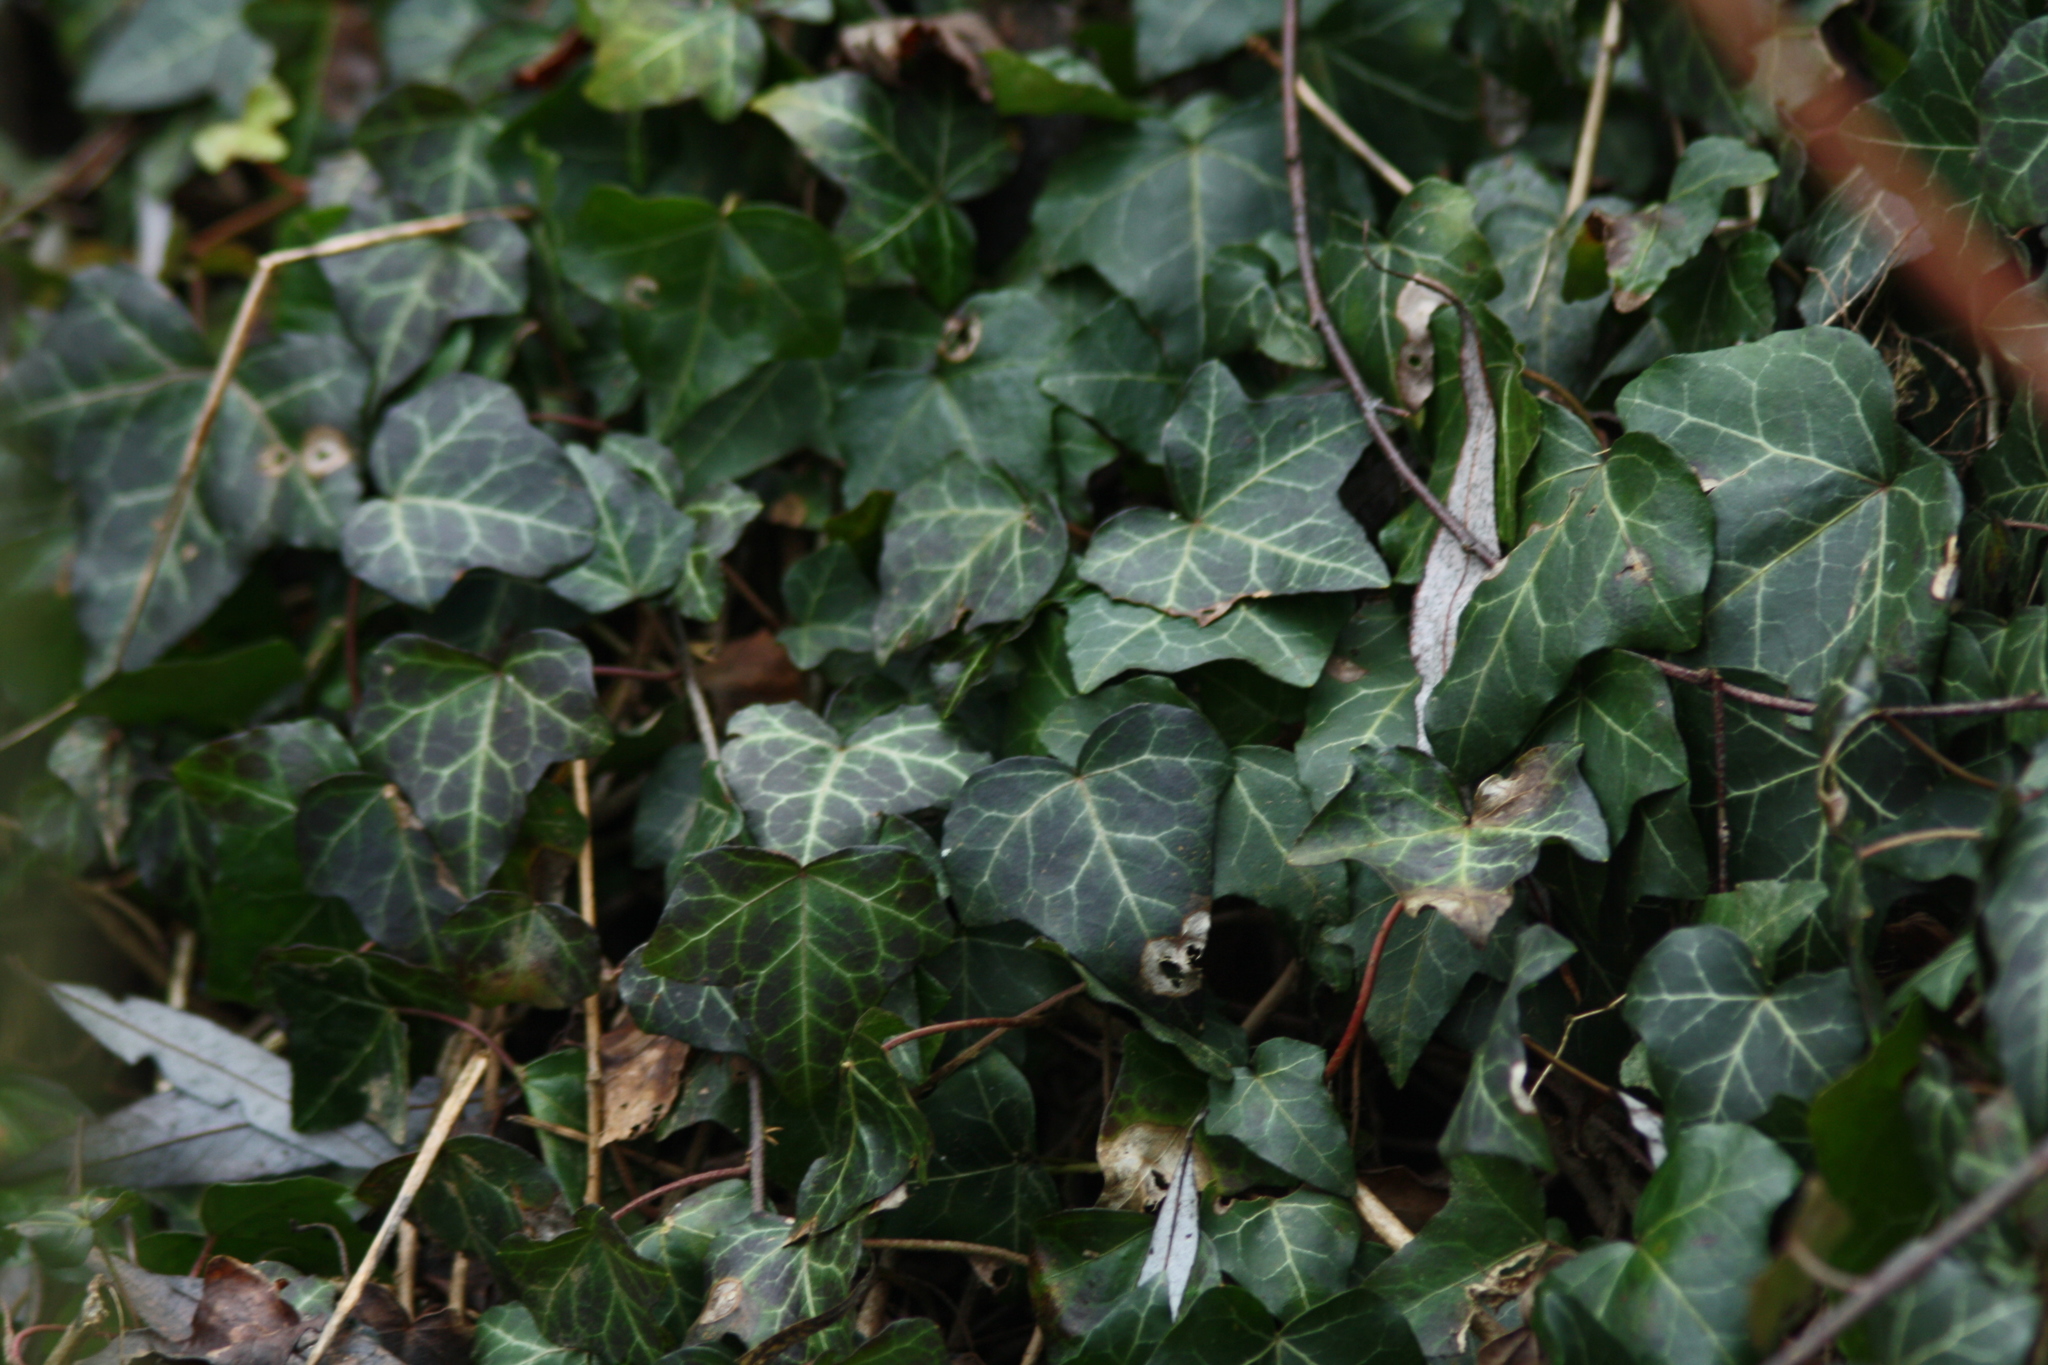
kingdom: Plantae
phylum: Tracheophyta
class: Magnoliopsida
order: Apiales
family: Araliaceae
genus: Hedera
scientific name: Hedera helix
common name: Ivy
